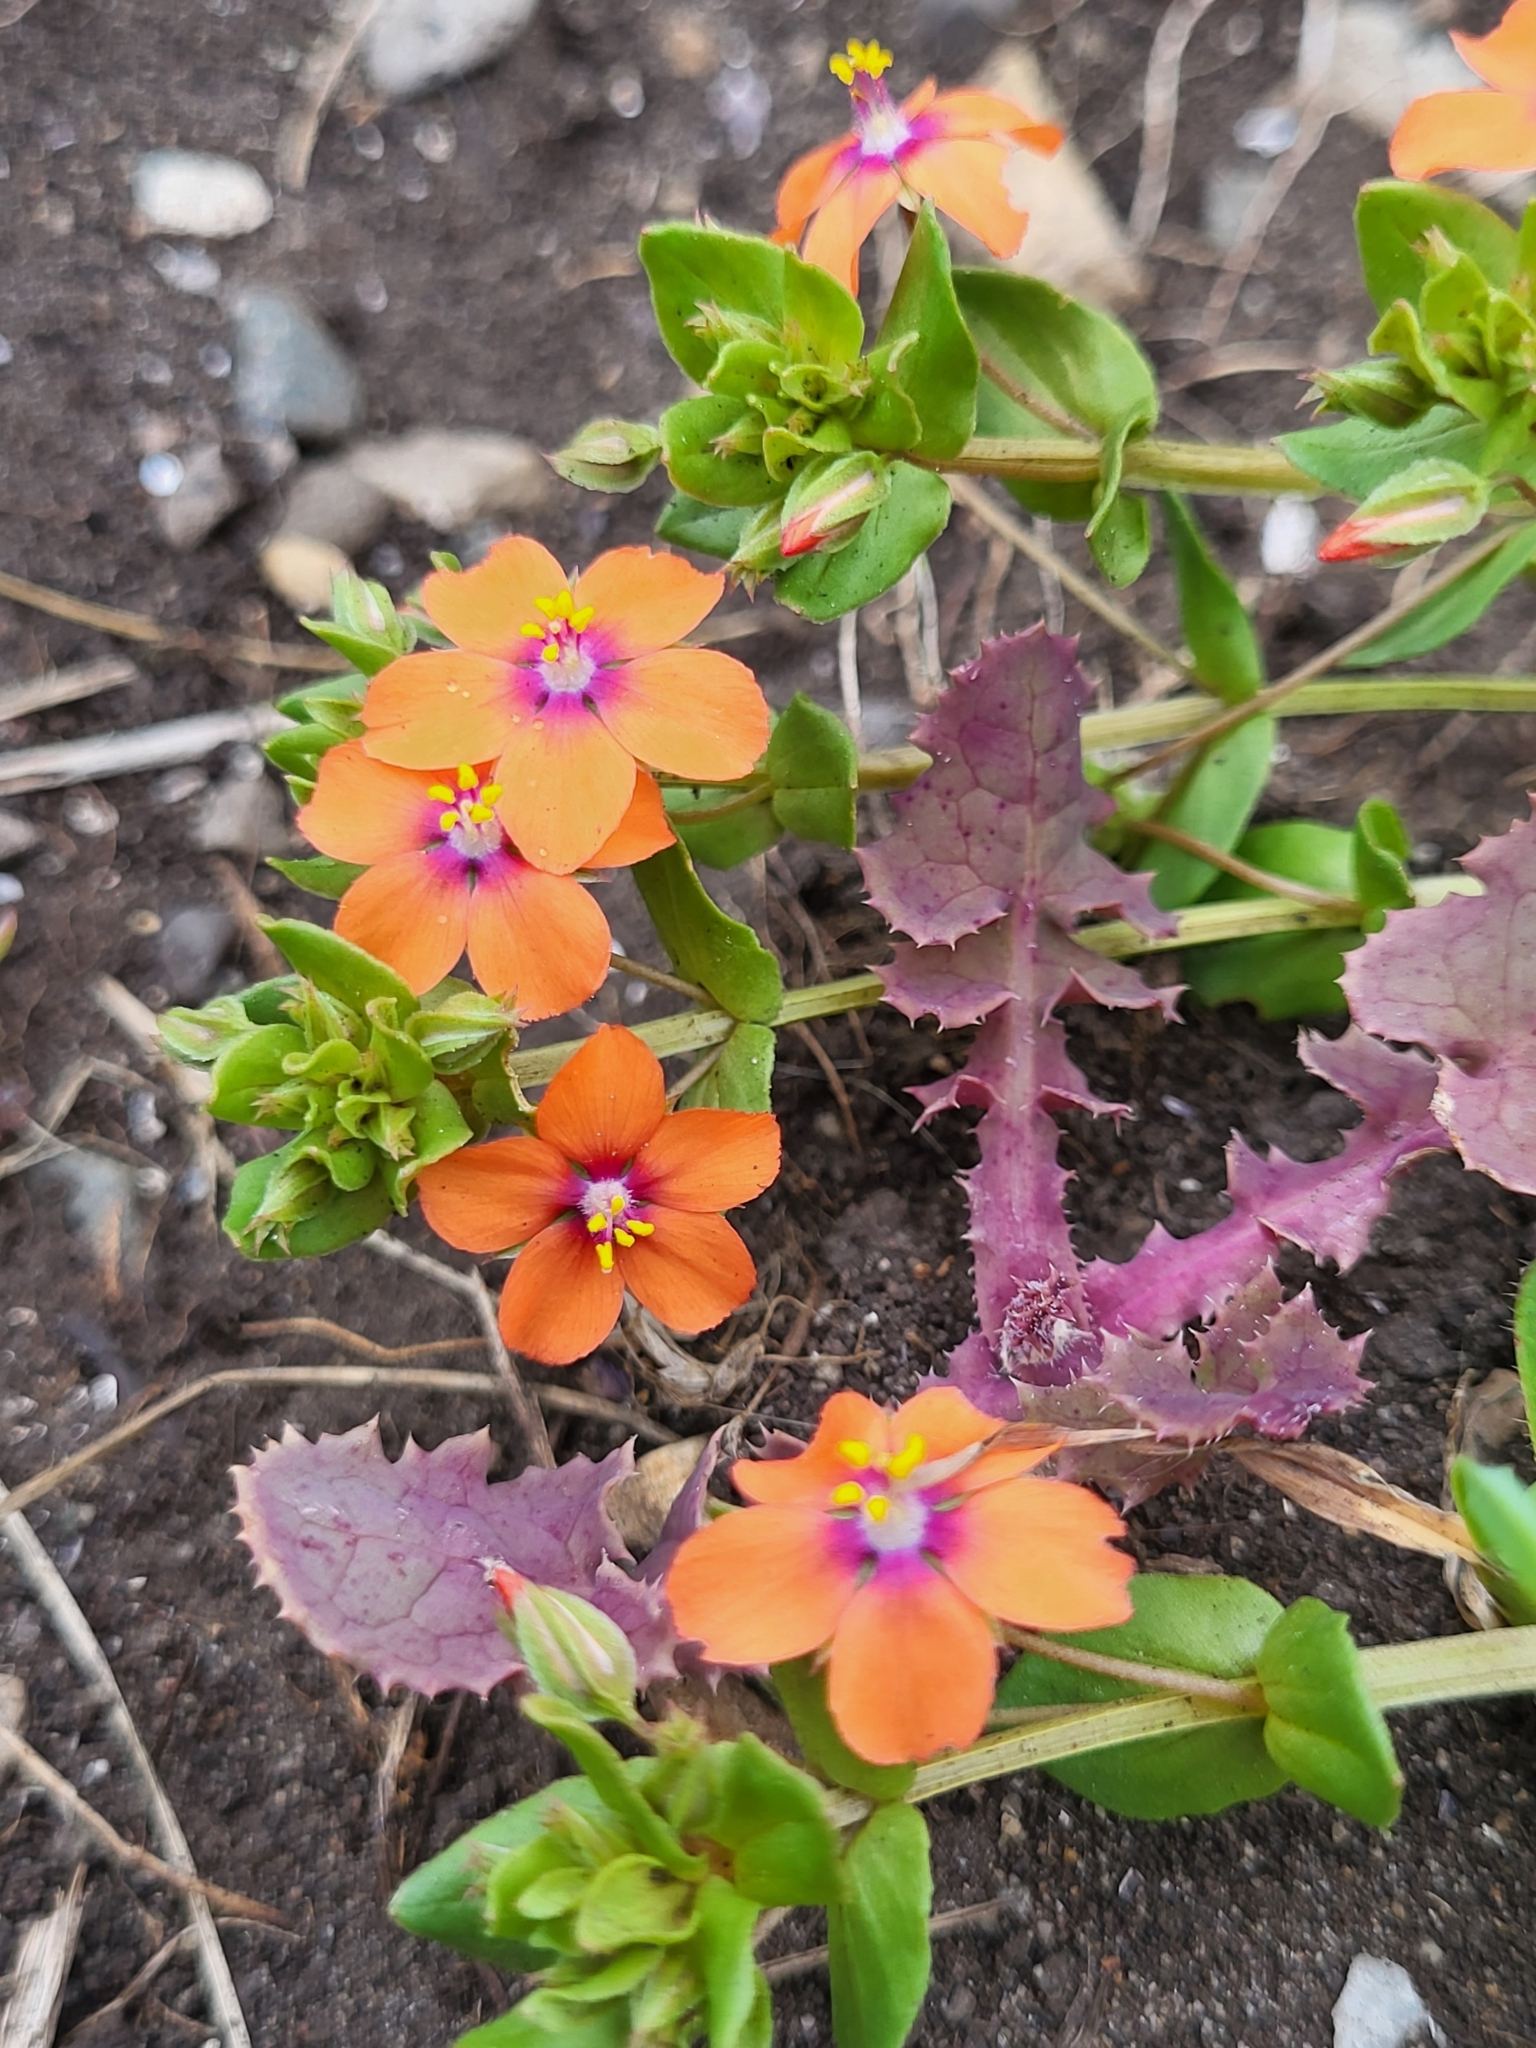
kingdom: Plantae
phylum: Tracheophyta
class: Magnoliopsida
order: Ericales
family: Primulaceae
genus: Lysimachia
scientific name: Lysimachia arvensis
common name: Scarlet pimpernel
